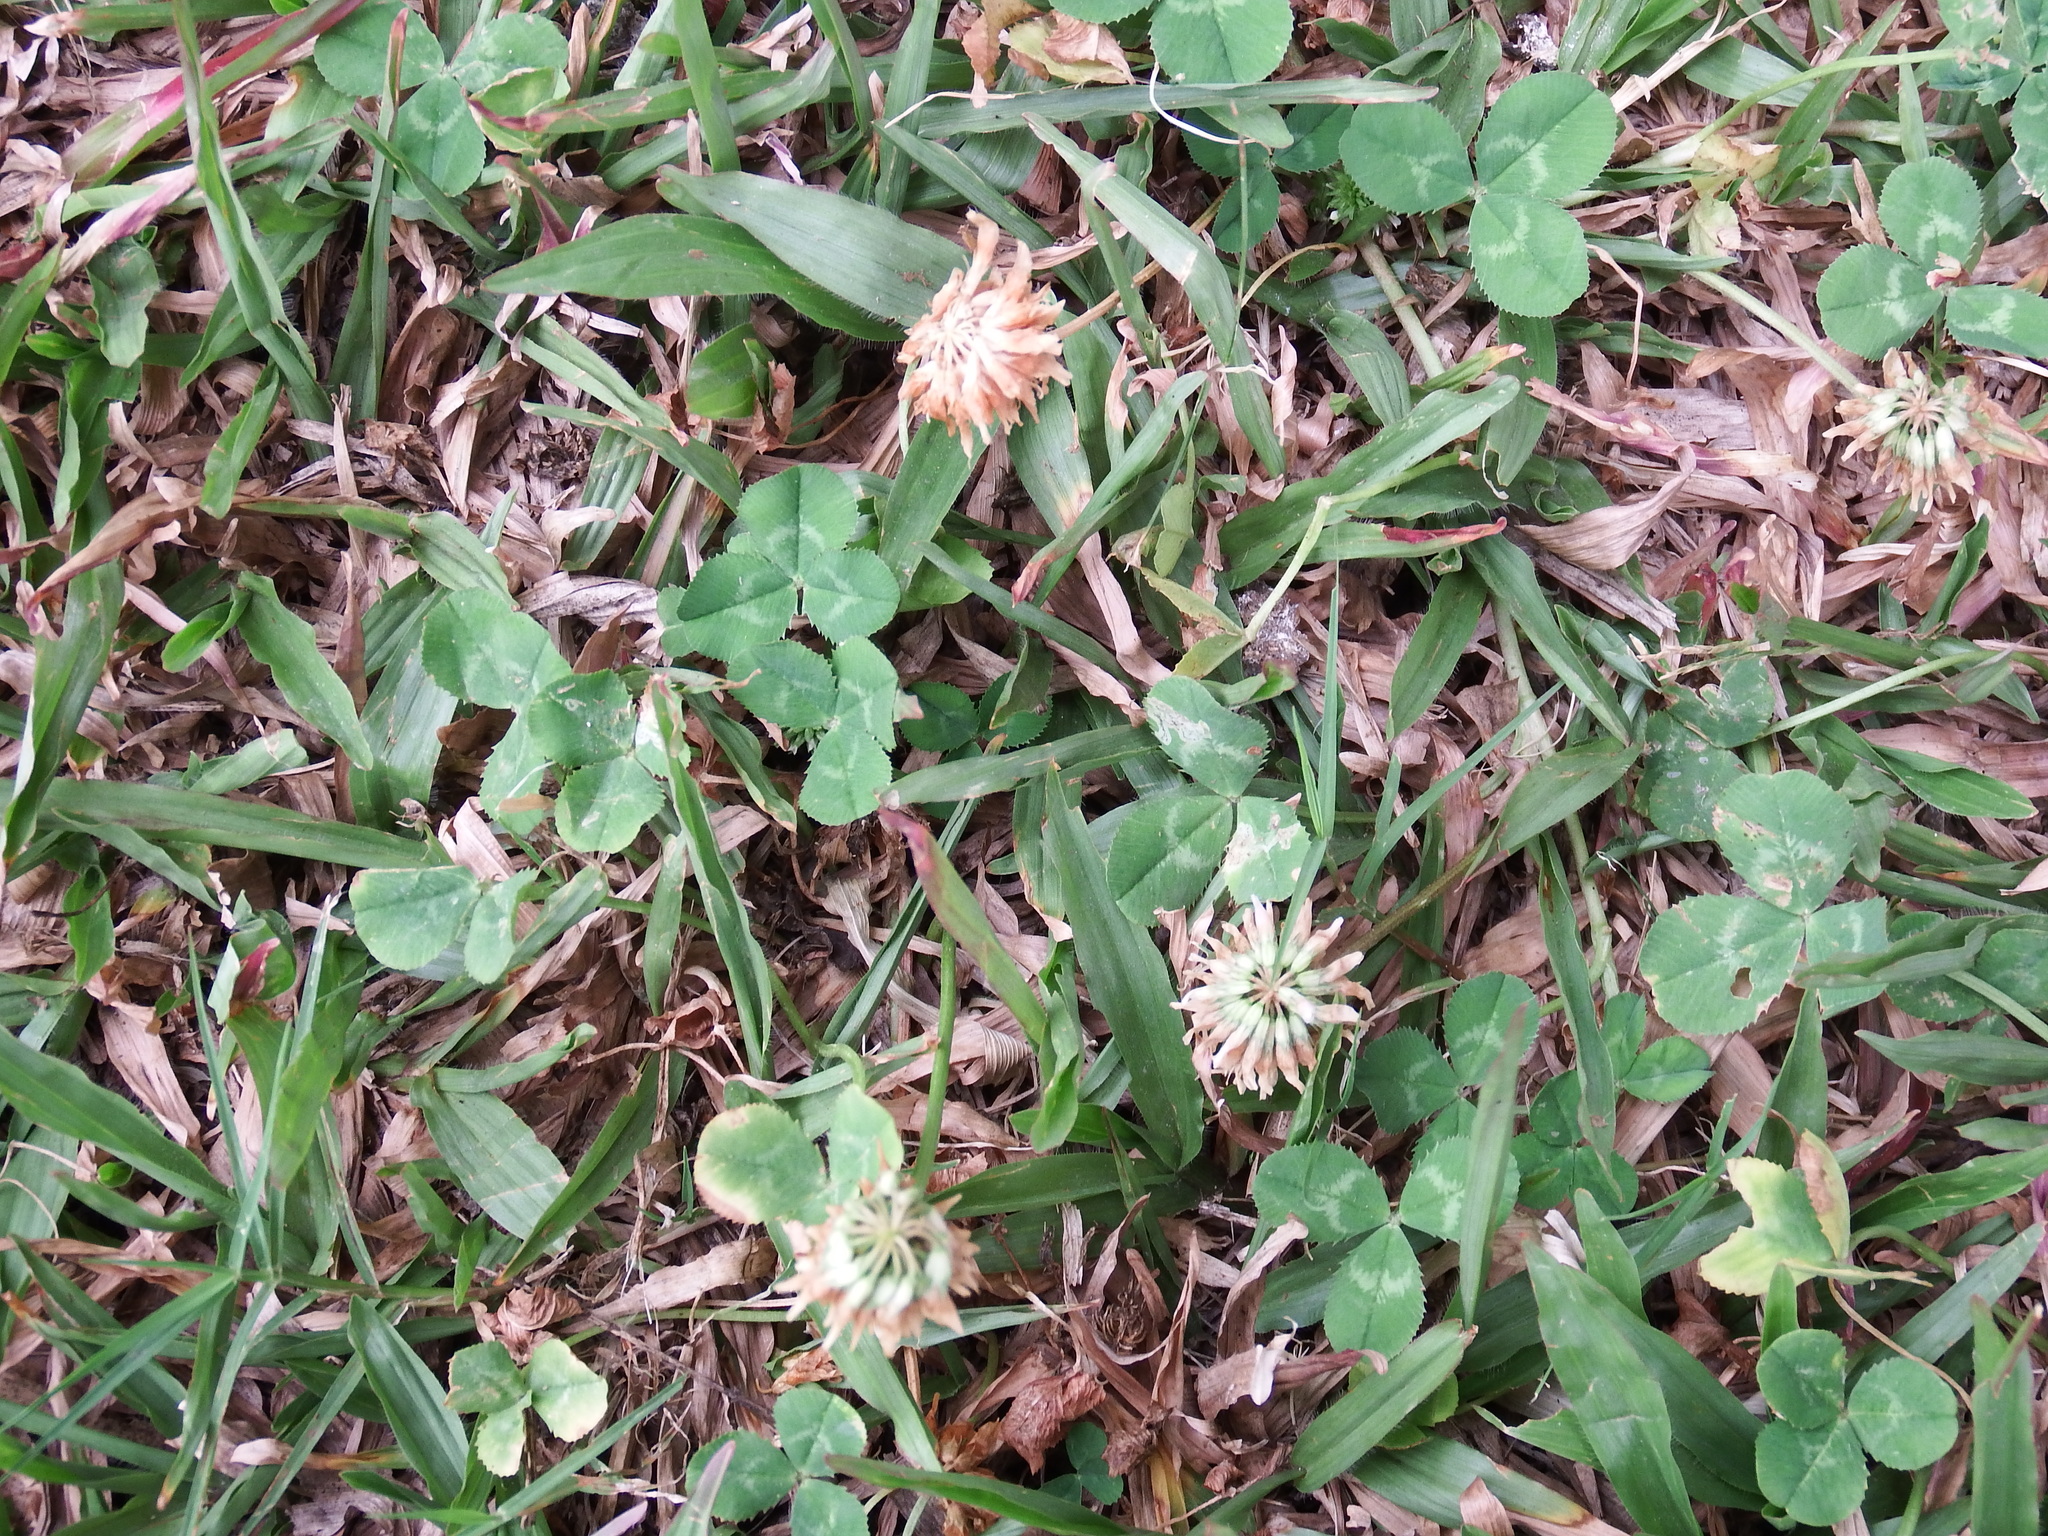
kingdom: Plantae
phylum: Tracheophyta
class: Magnoliopsida
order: Fabales
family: Fabaceae
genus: Trifolium
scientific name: Trifolium repens
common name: White clover
